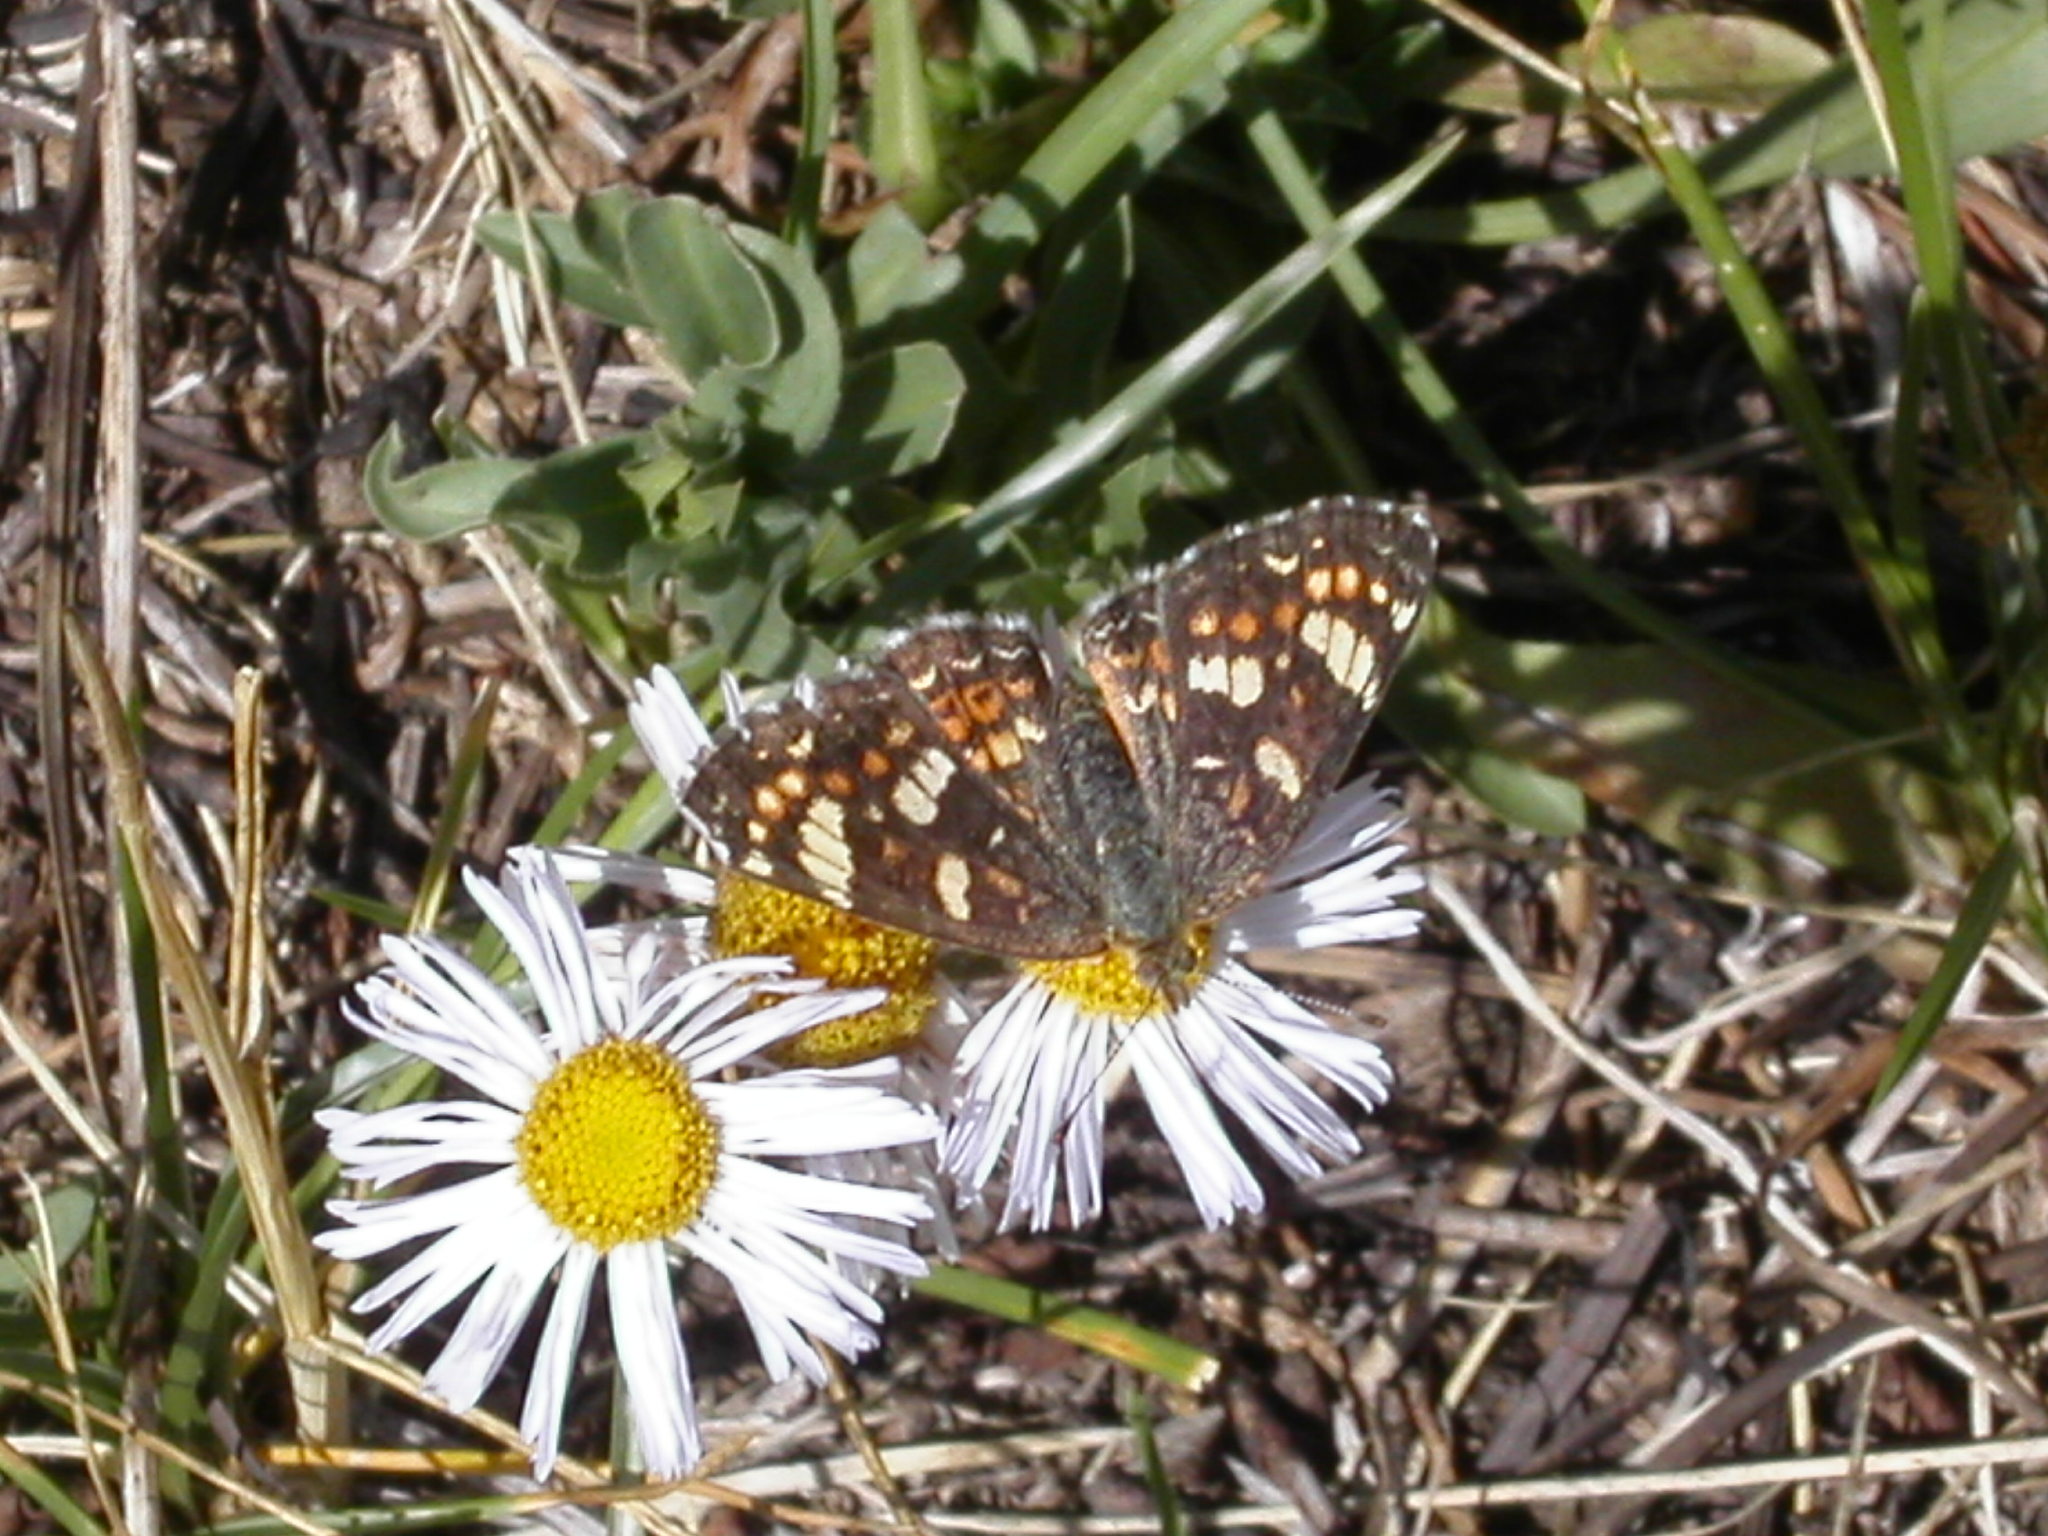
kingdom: Animalia
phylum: Arthropoda
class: Insecta
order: Lepidoptera
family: Nymphalidae
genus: Phyciodes
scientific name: Phyciodes tharos
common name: Pearl crescent
